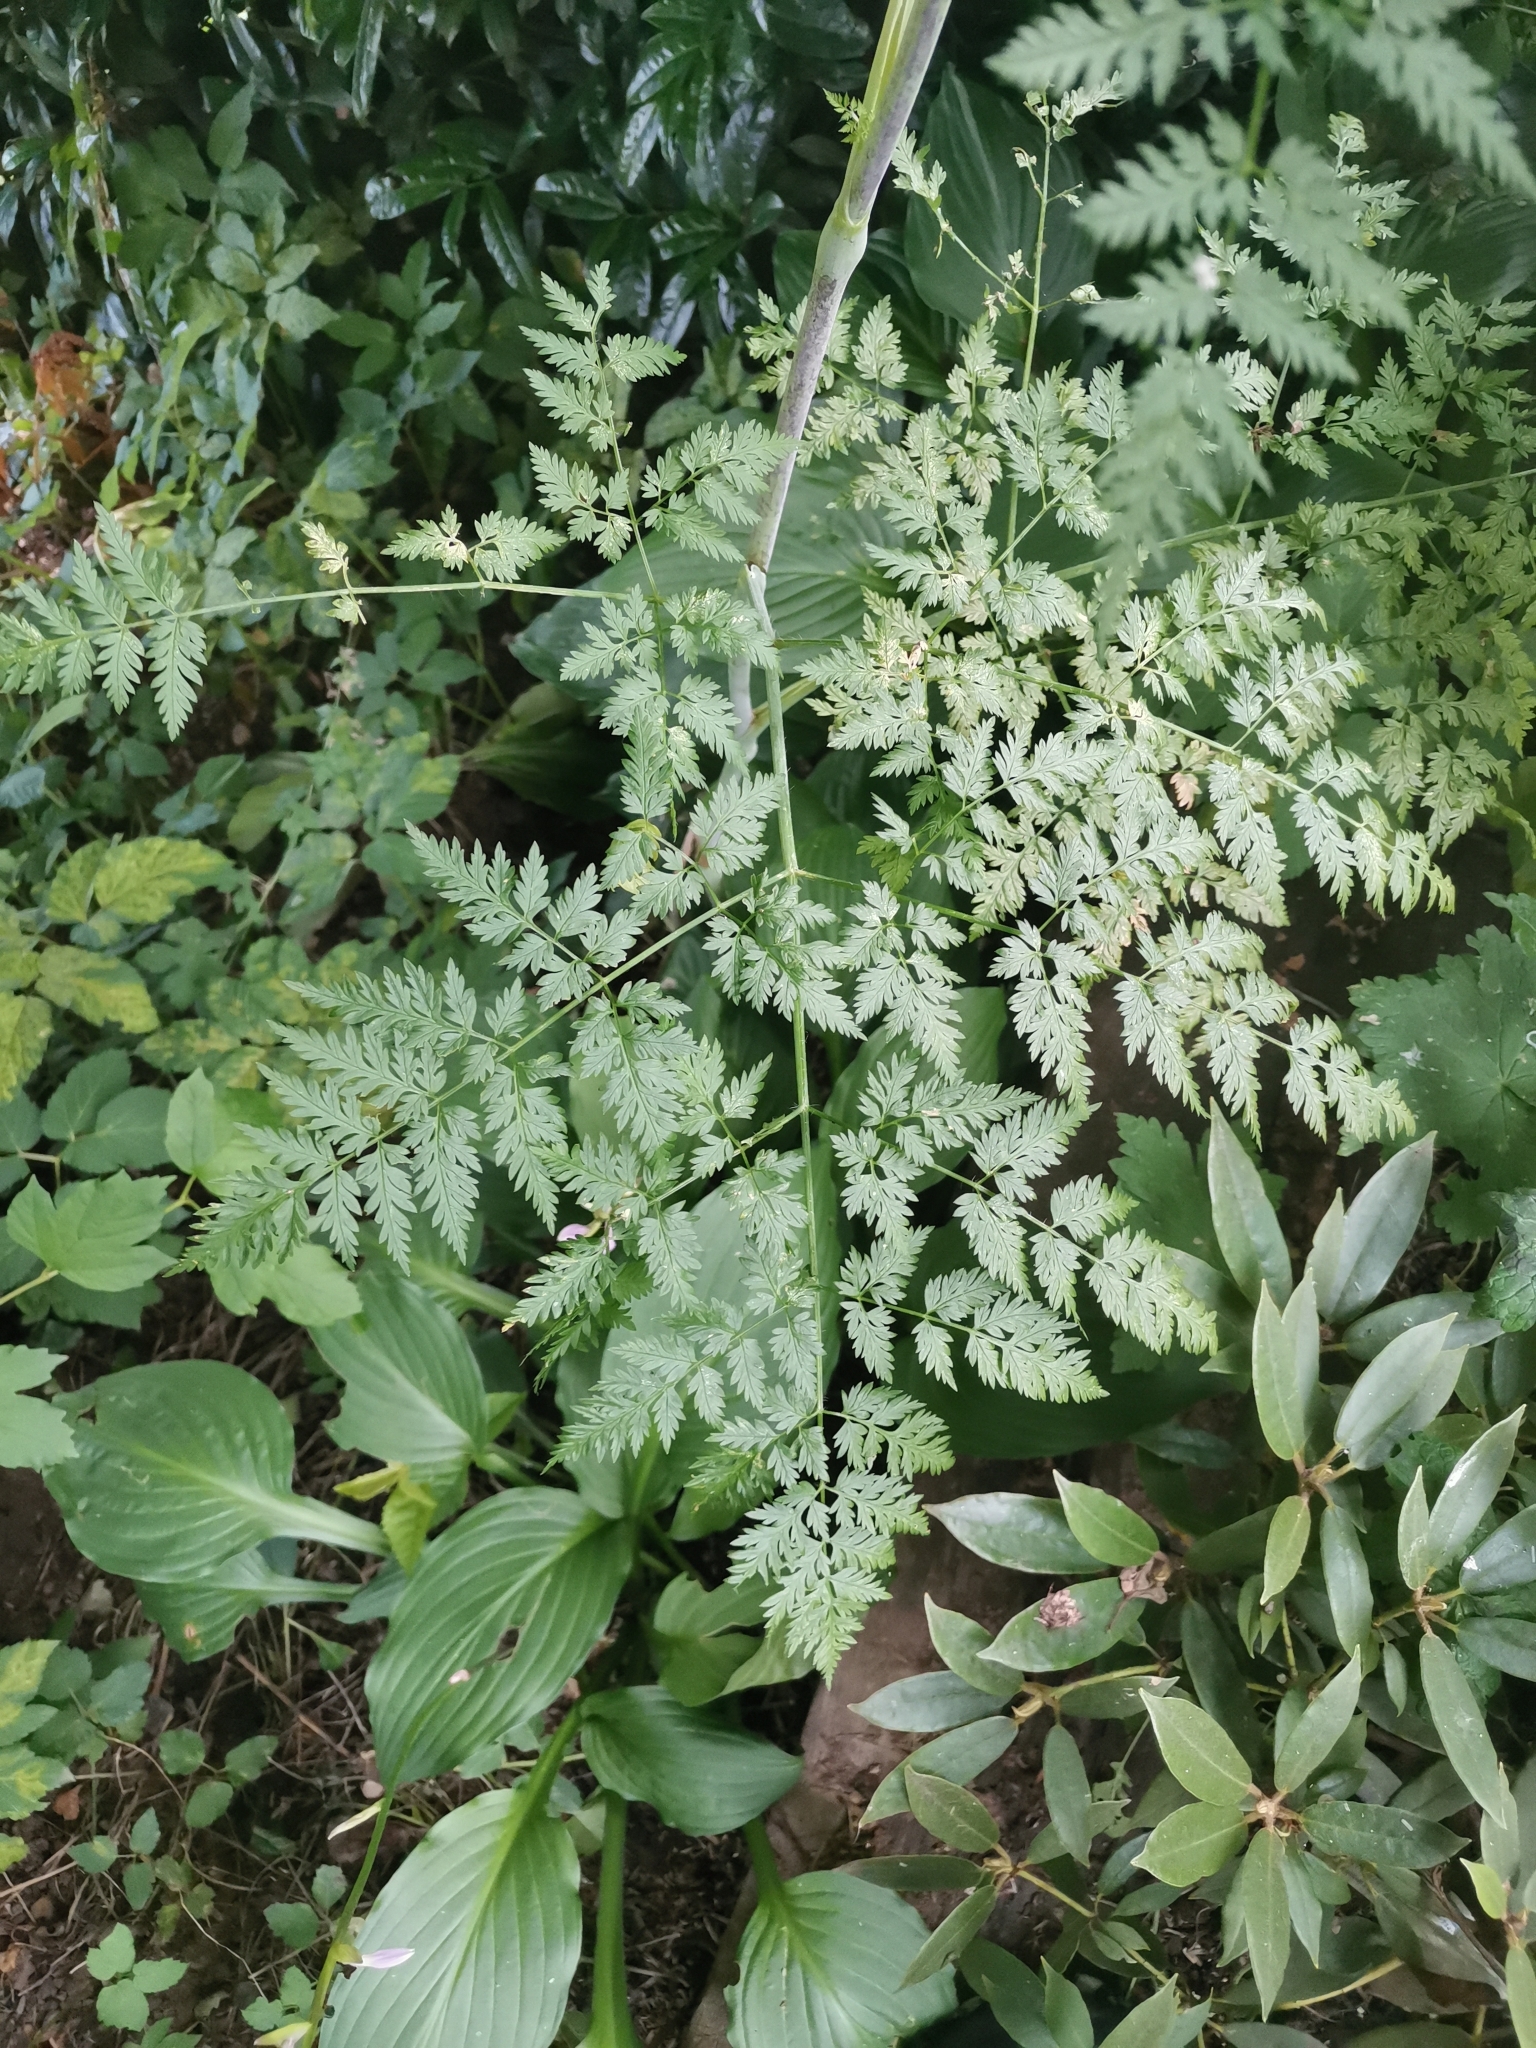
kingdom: Plantae
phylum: Tracheophyta
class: Magnoliopsida
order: Apiales
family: Apiaceae
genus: Chaerophyllum
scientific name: Chaerophyllum bulbosum
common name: Bulbous chervil
